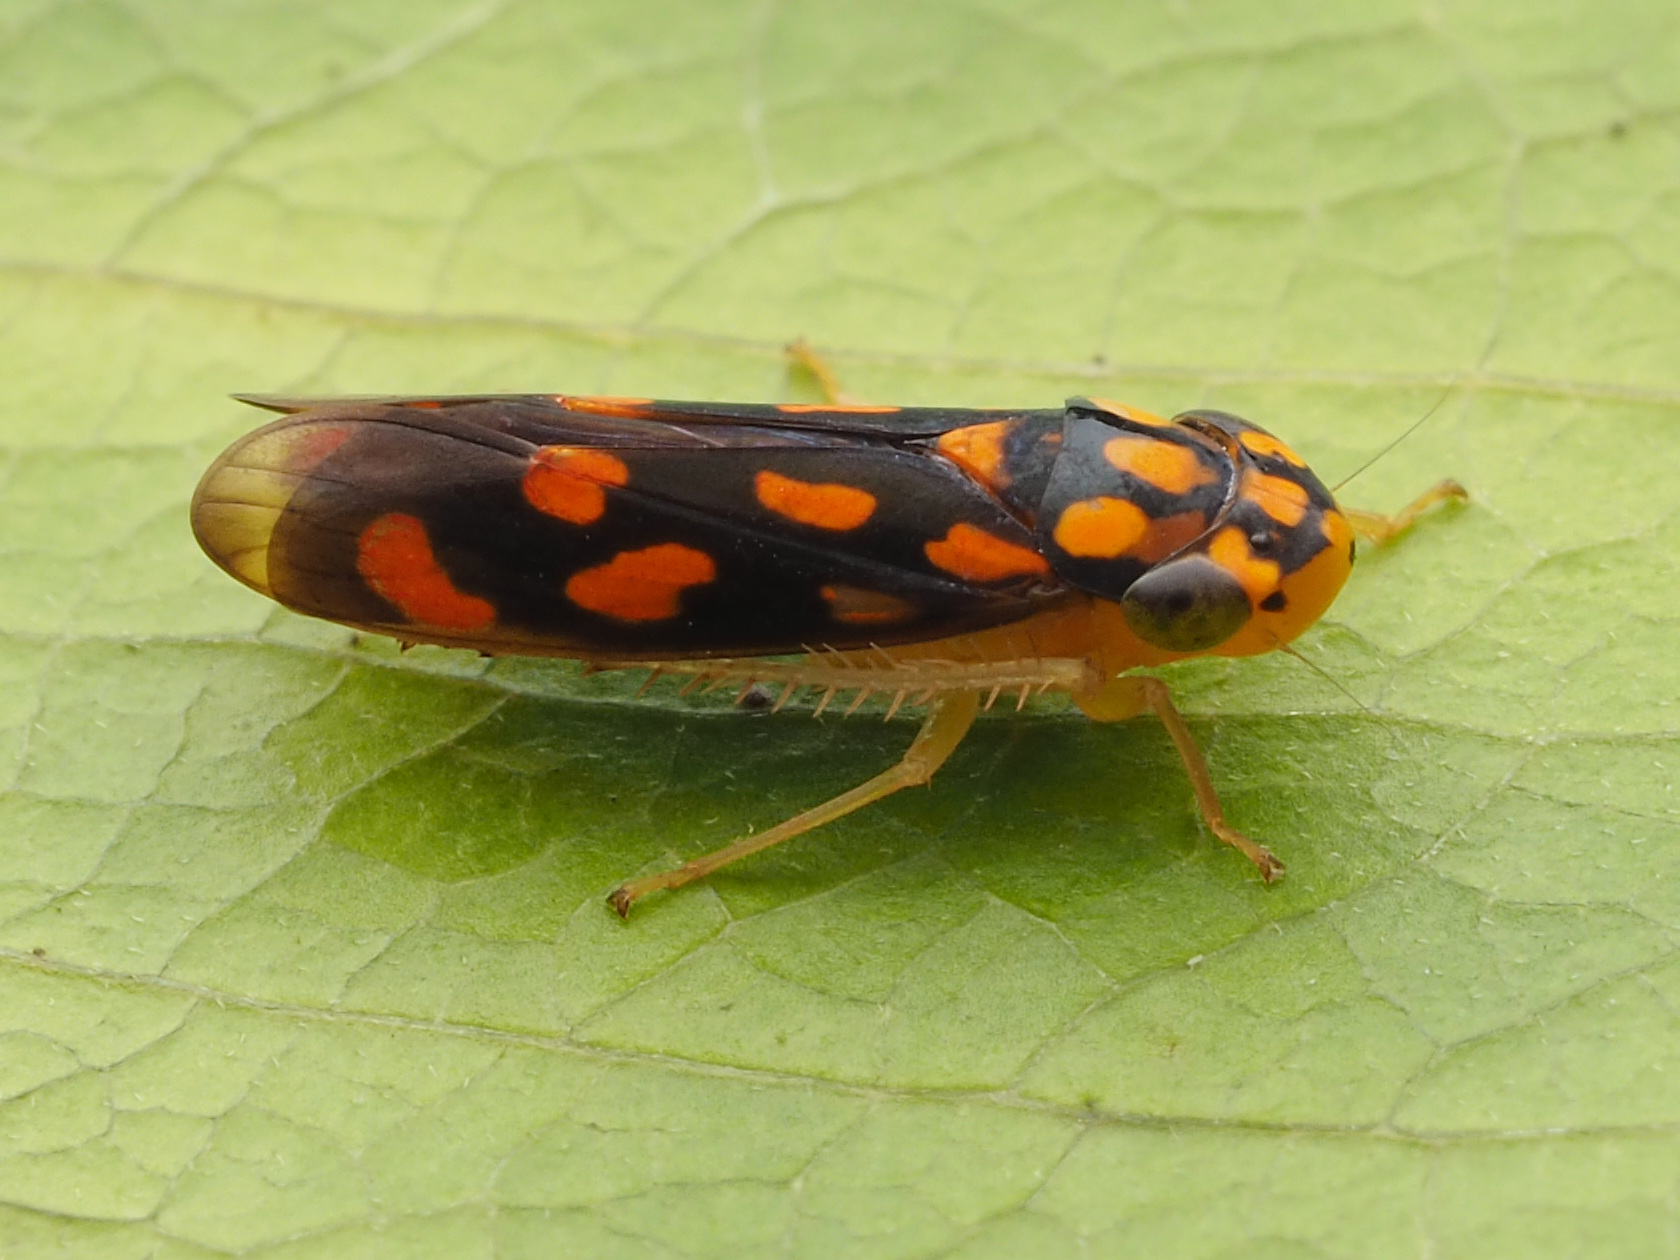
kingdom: Animalia
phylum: Arthropoda
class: Insecta
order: Hemiptera
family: Cicadellidae
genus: Oragua
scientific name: Oragua
